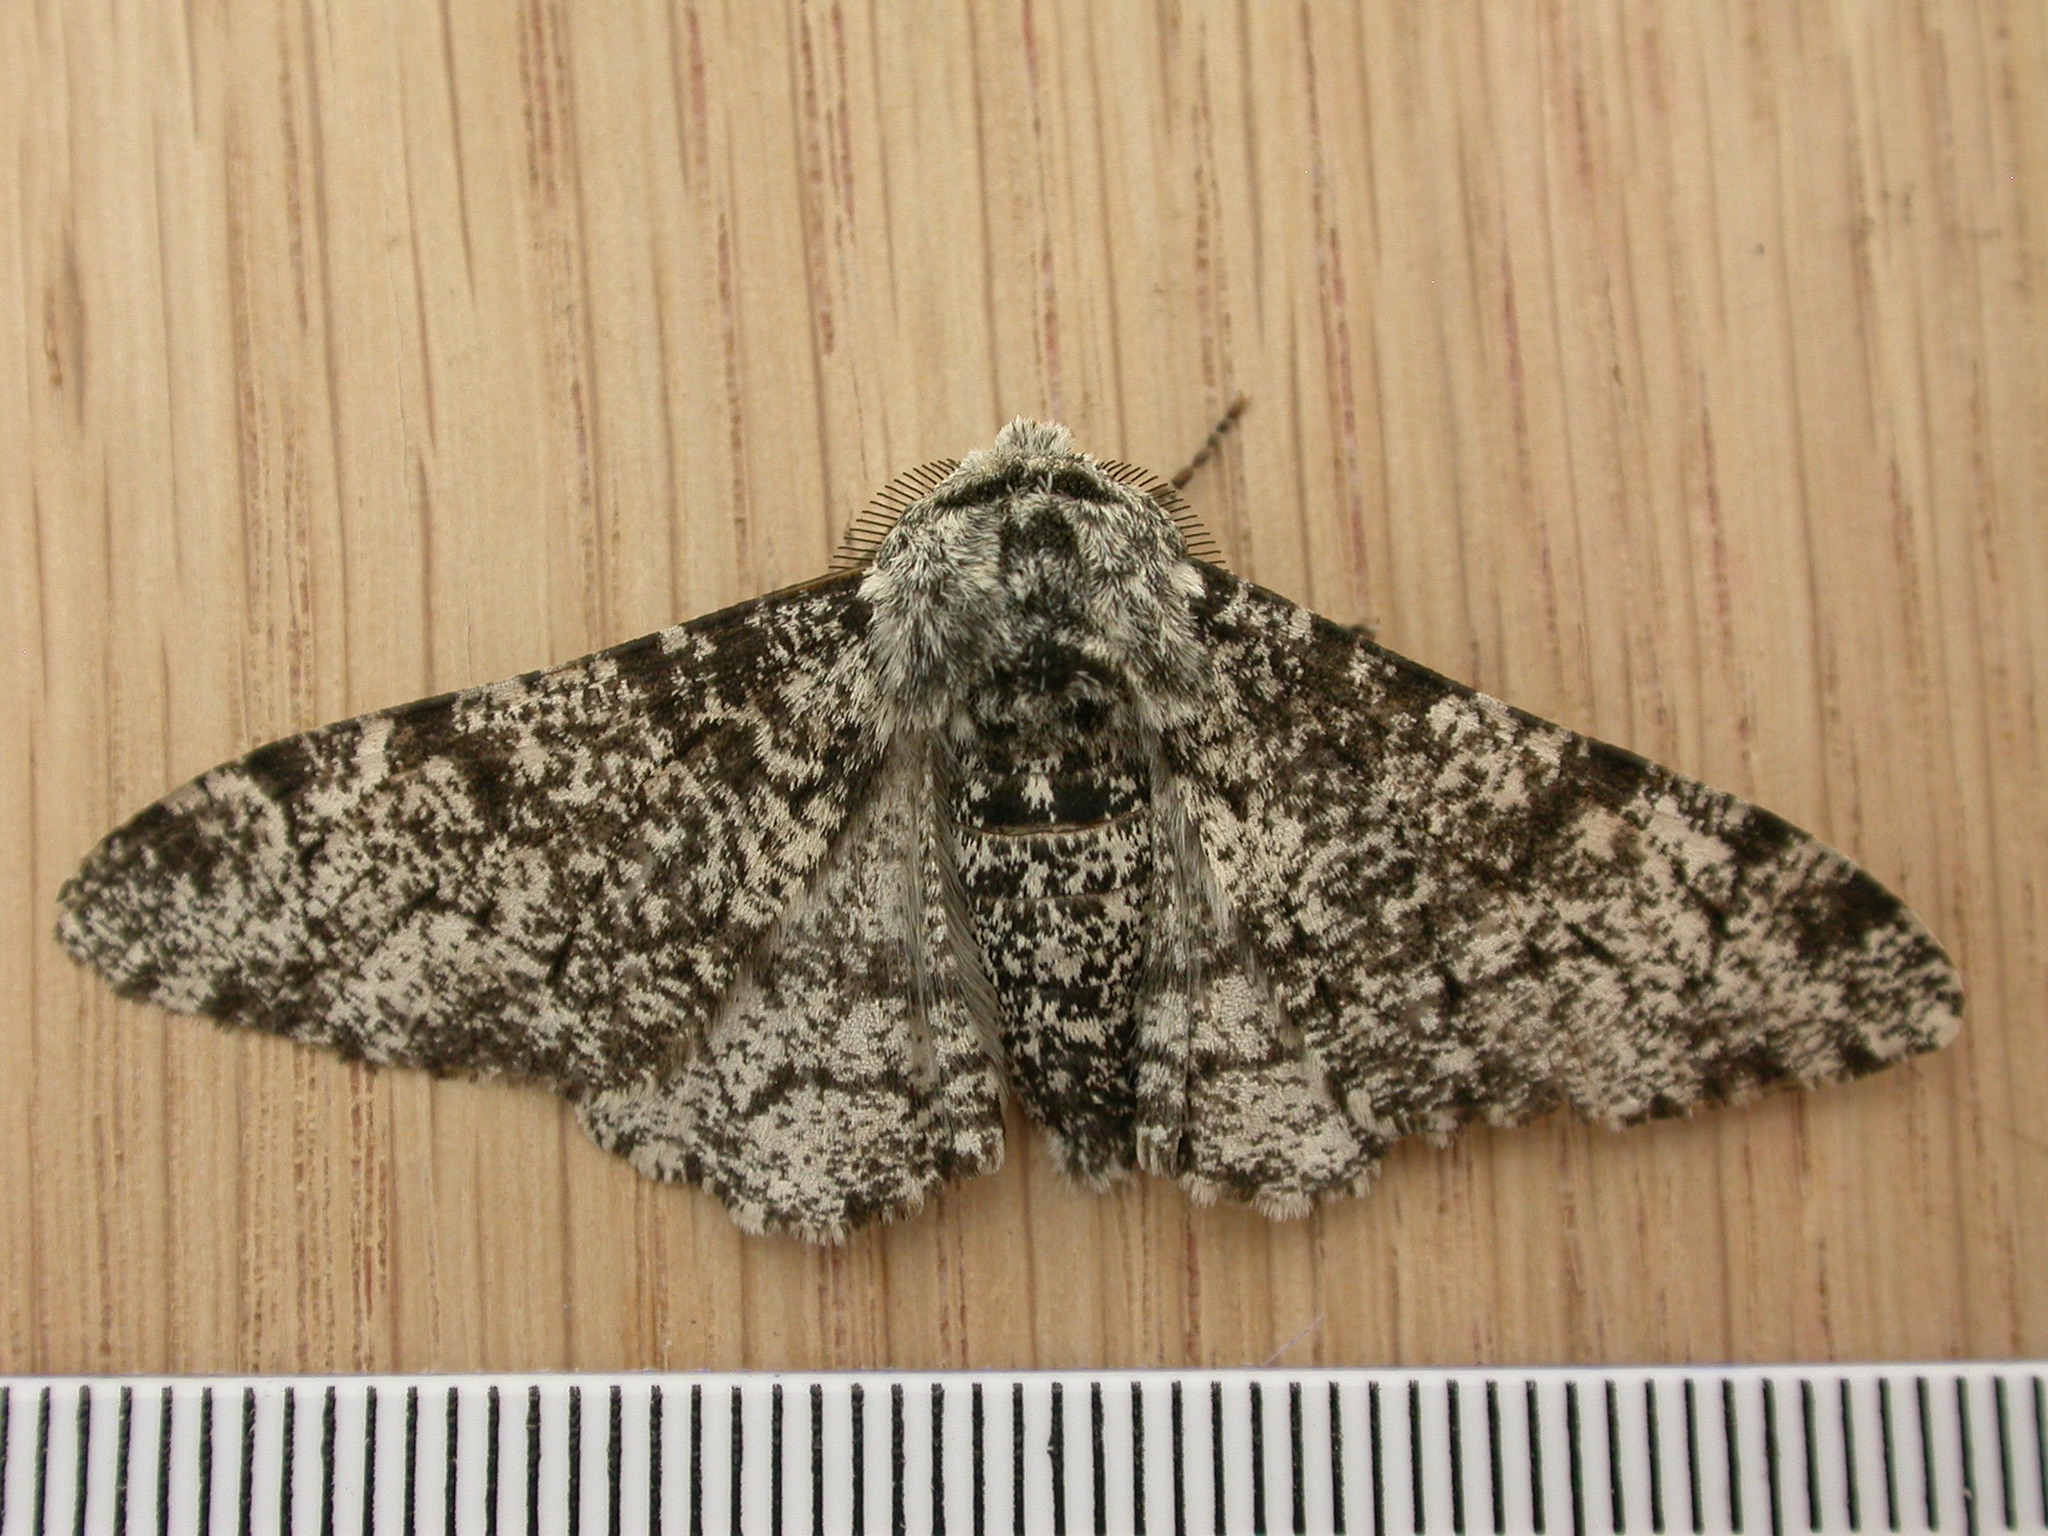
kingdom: Animalia
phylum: Arthropoda
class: Insecta
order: Lepidoptera
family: Geometridae
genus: Biston
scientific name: Biston betularia
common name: Peppered moth
